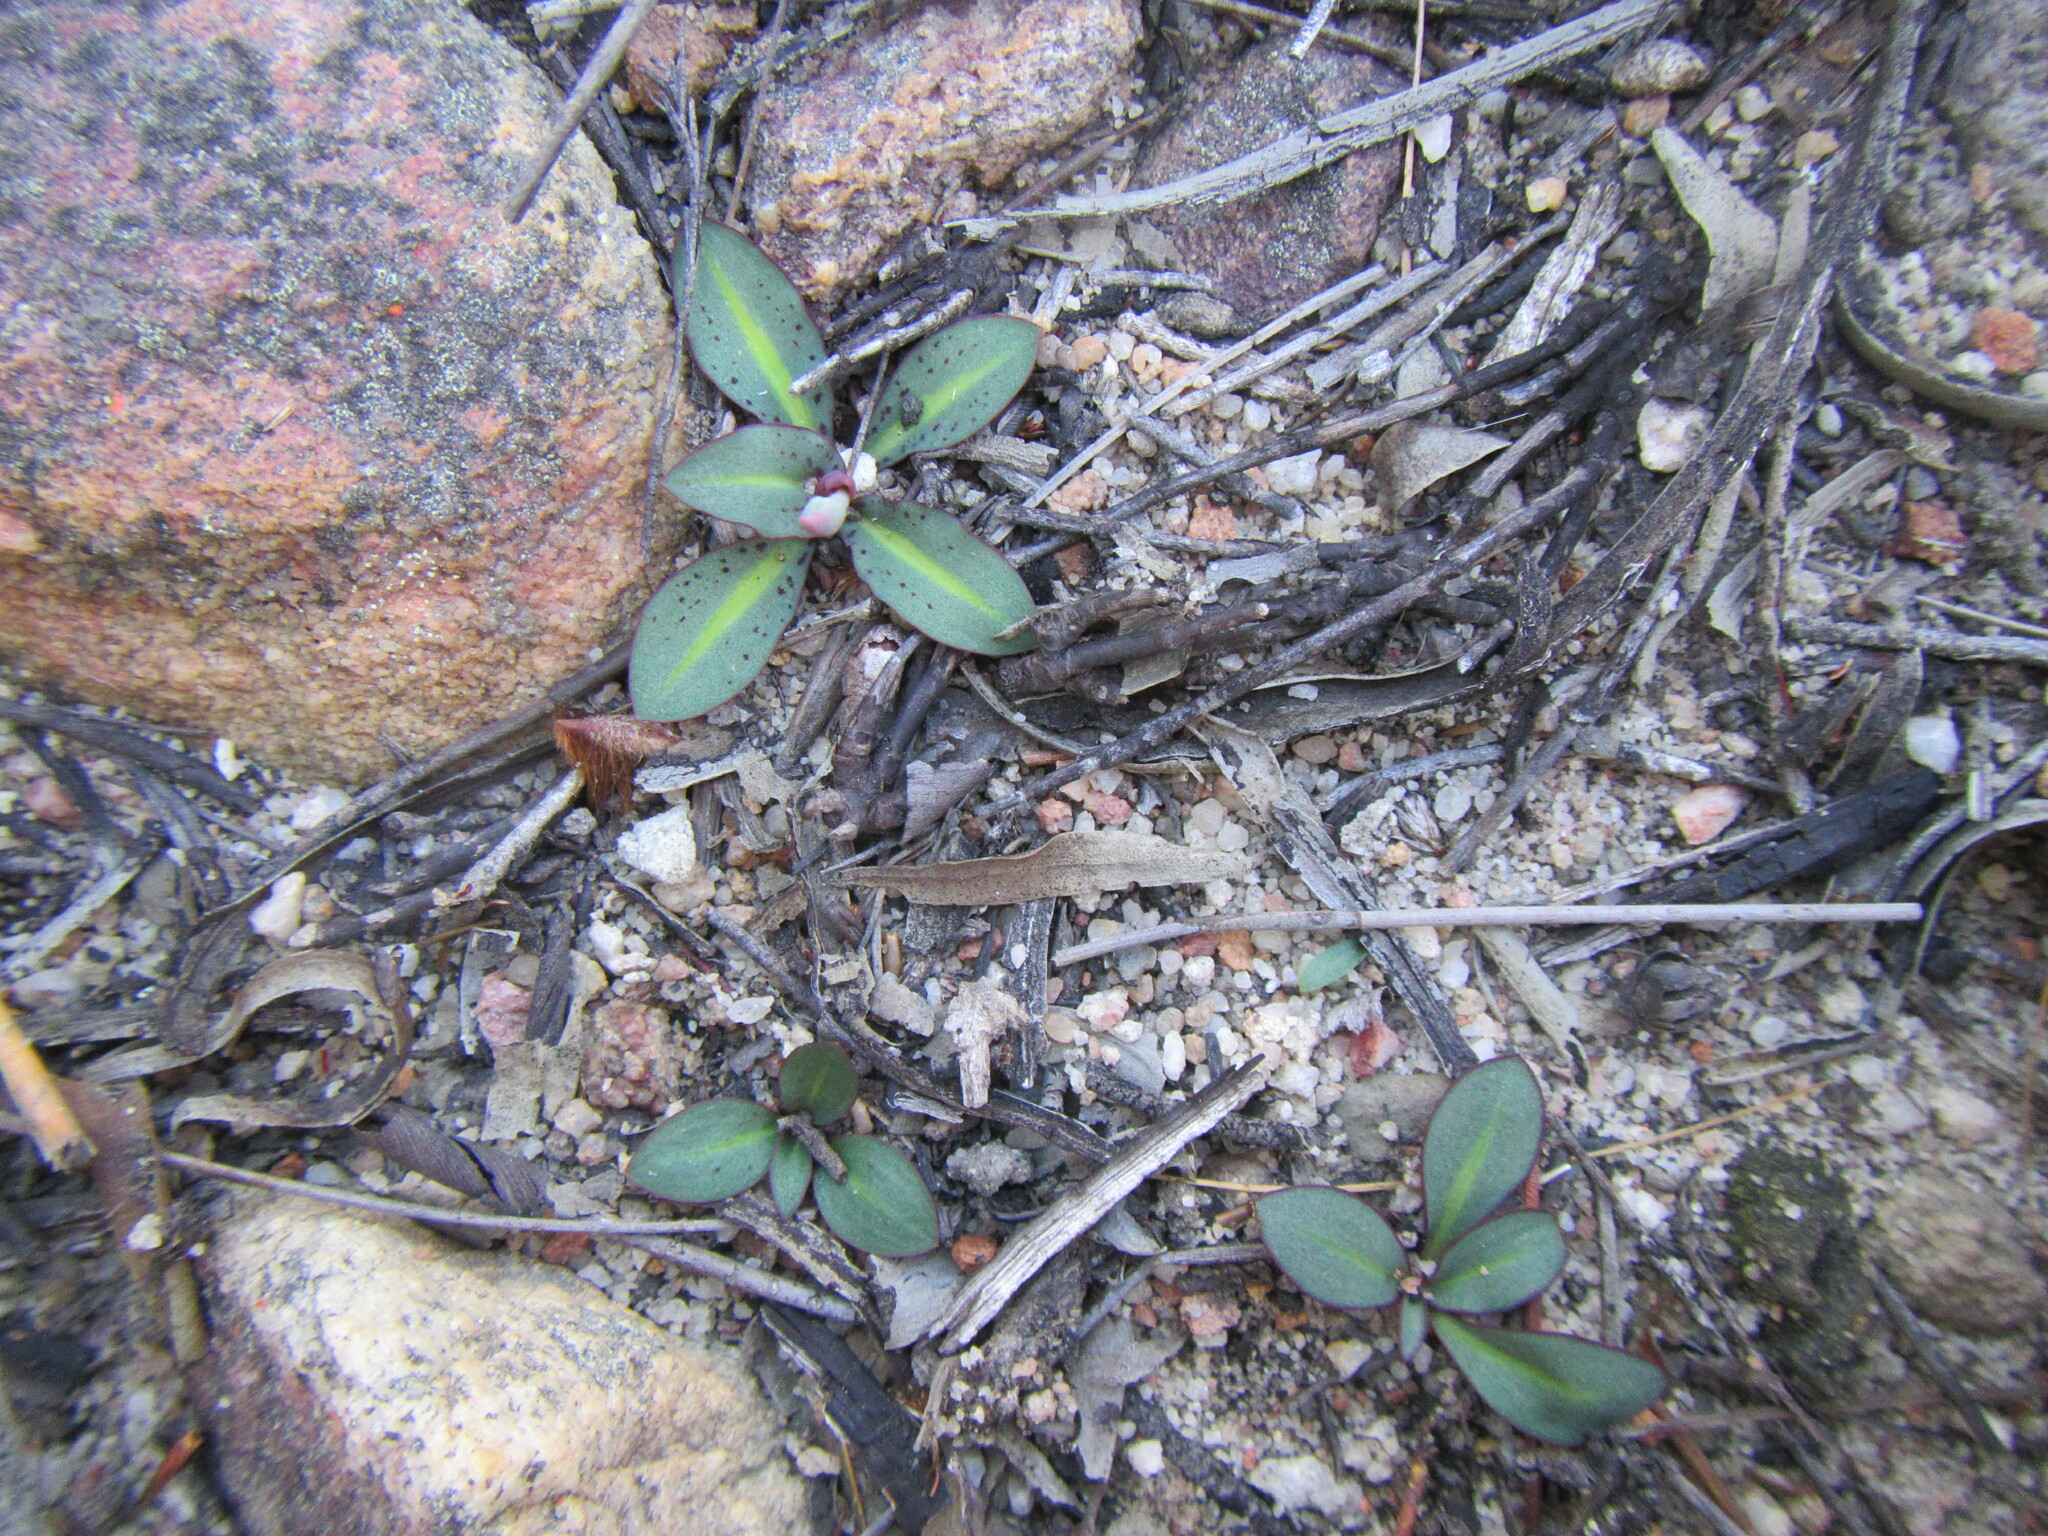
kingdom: Plantae
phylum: Tracheophyta
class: Liliopsida
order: Asparagales
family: Orchidaceae
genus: Disa
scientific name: Disa bifida
